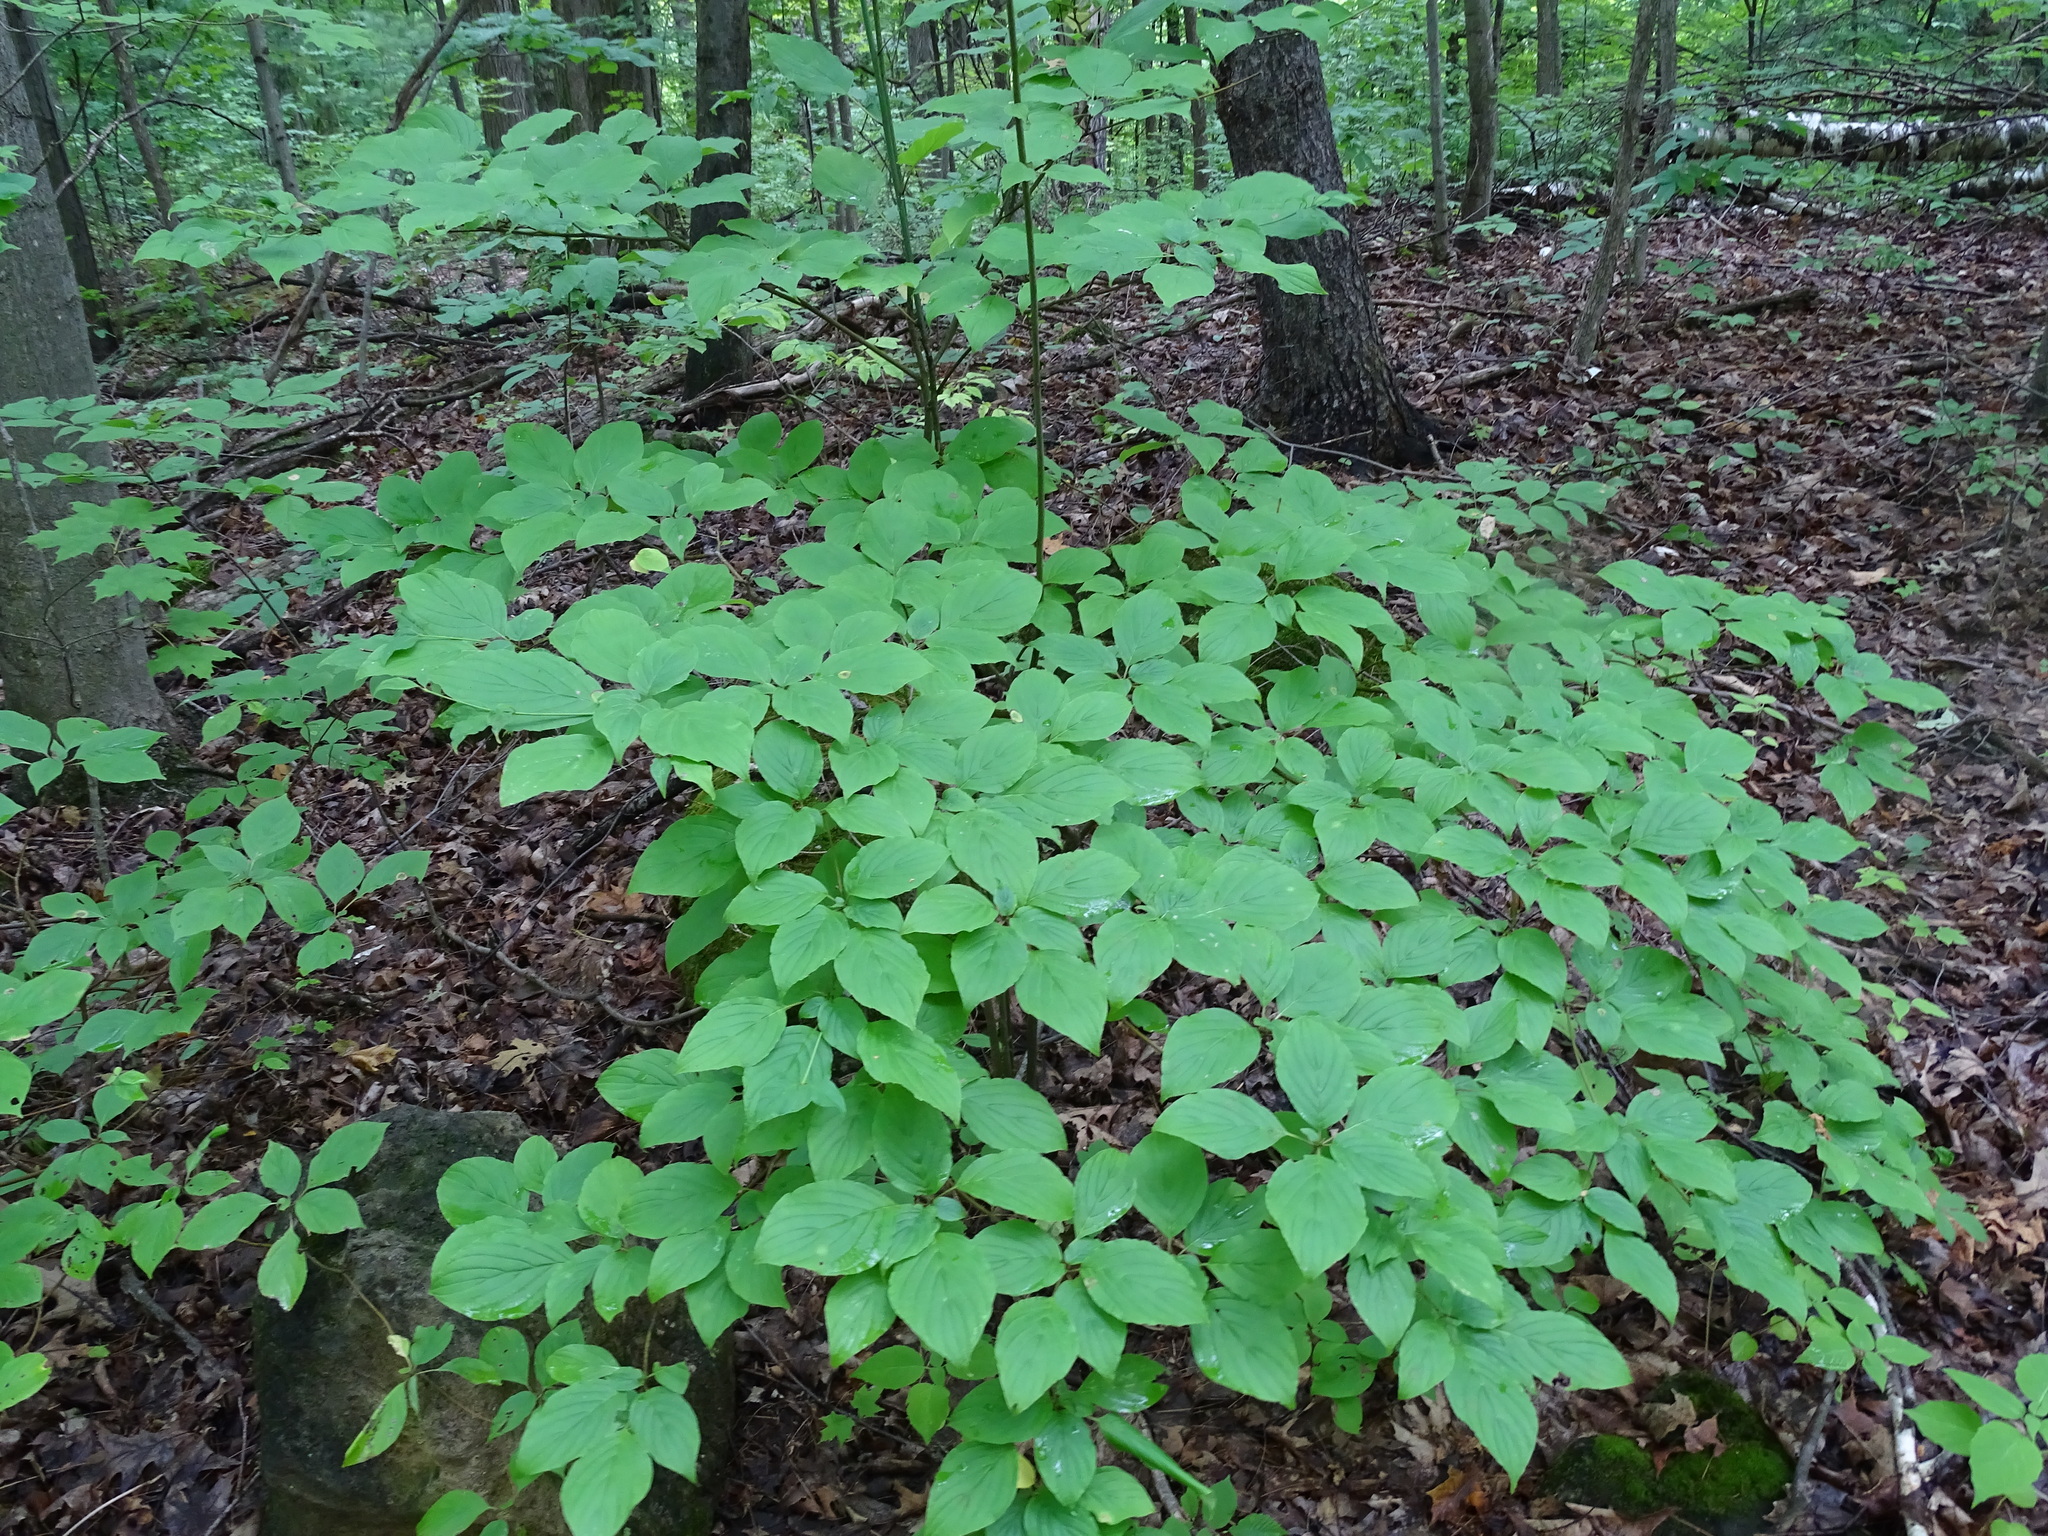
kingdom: Plantae
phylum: Tracheophyta
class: Magnoliopsida
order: Cornales
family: Cornaceae
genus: Cornus
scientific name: Cornus alternifolia
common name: Pagoda dogwood
